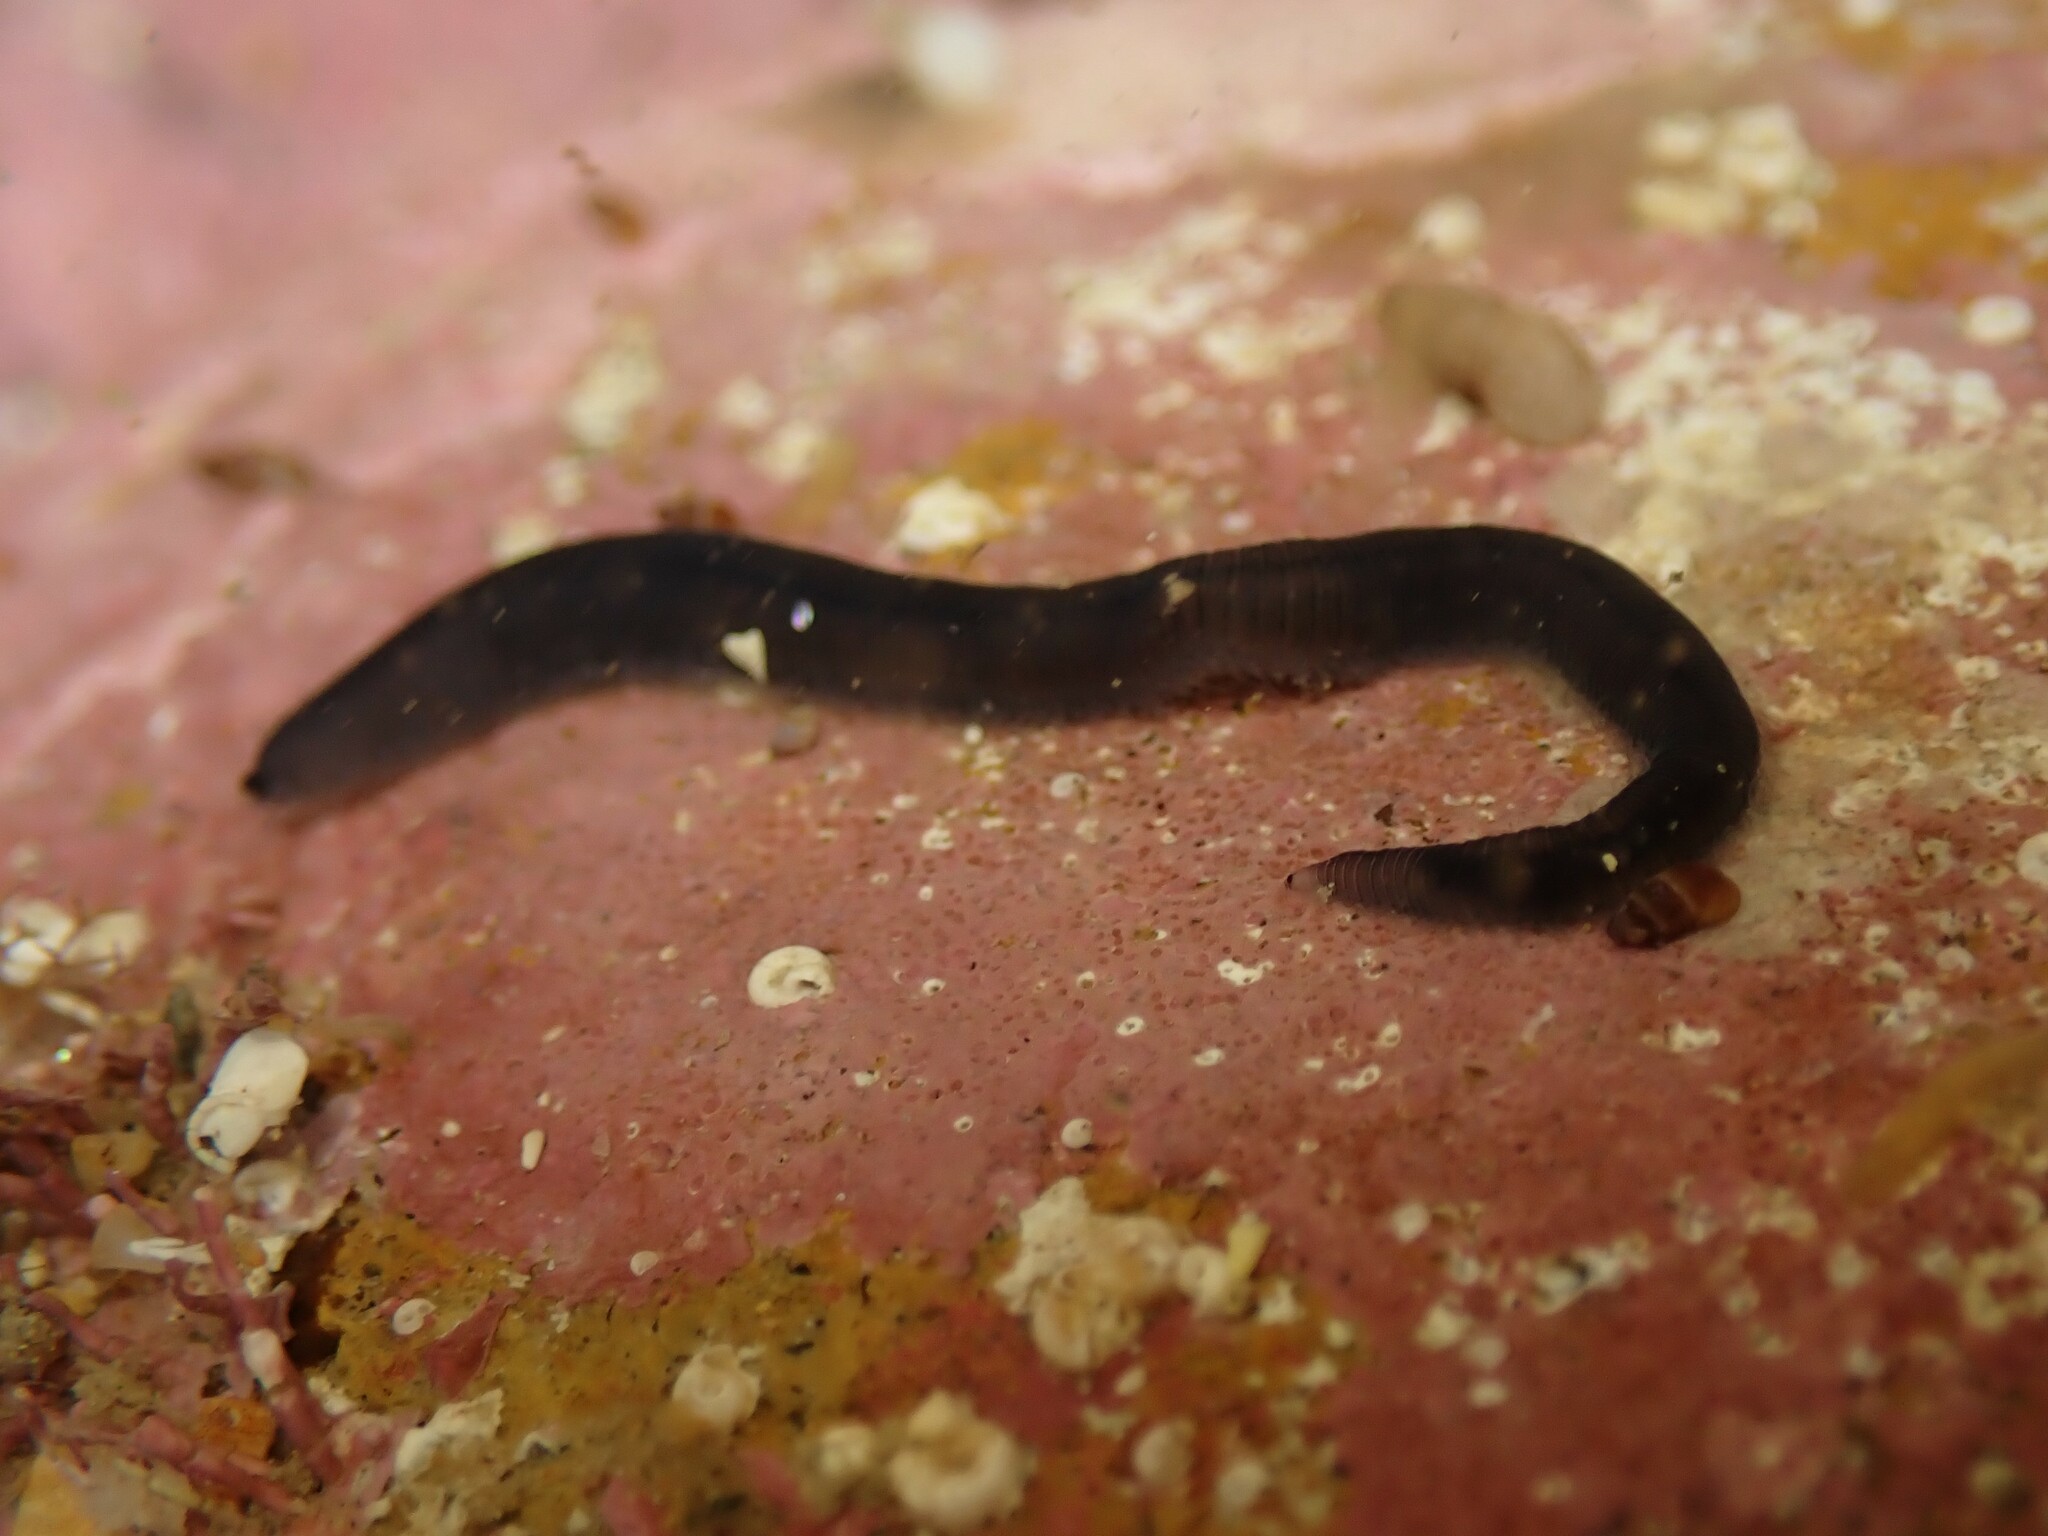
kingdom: Animalia
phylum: Annelida
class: Polychaeta
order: Phyllodocida
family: Syllidae
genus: Odontosyllis
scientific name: Odontosyllis polycera
